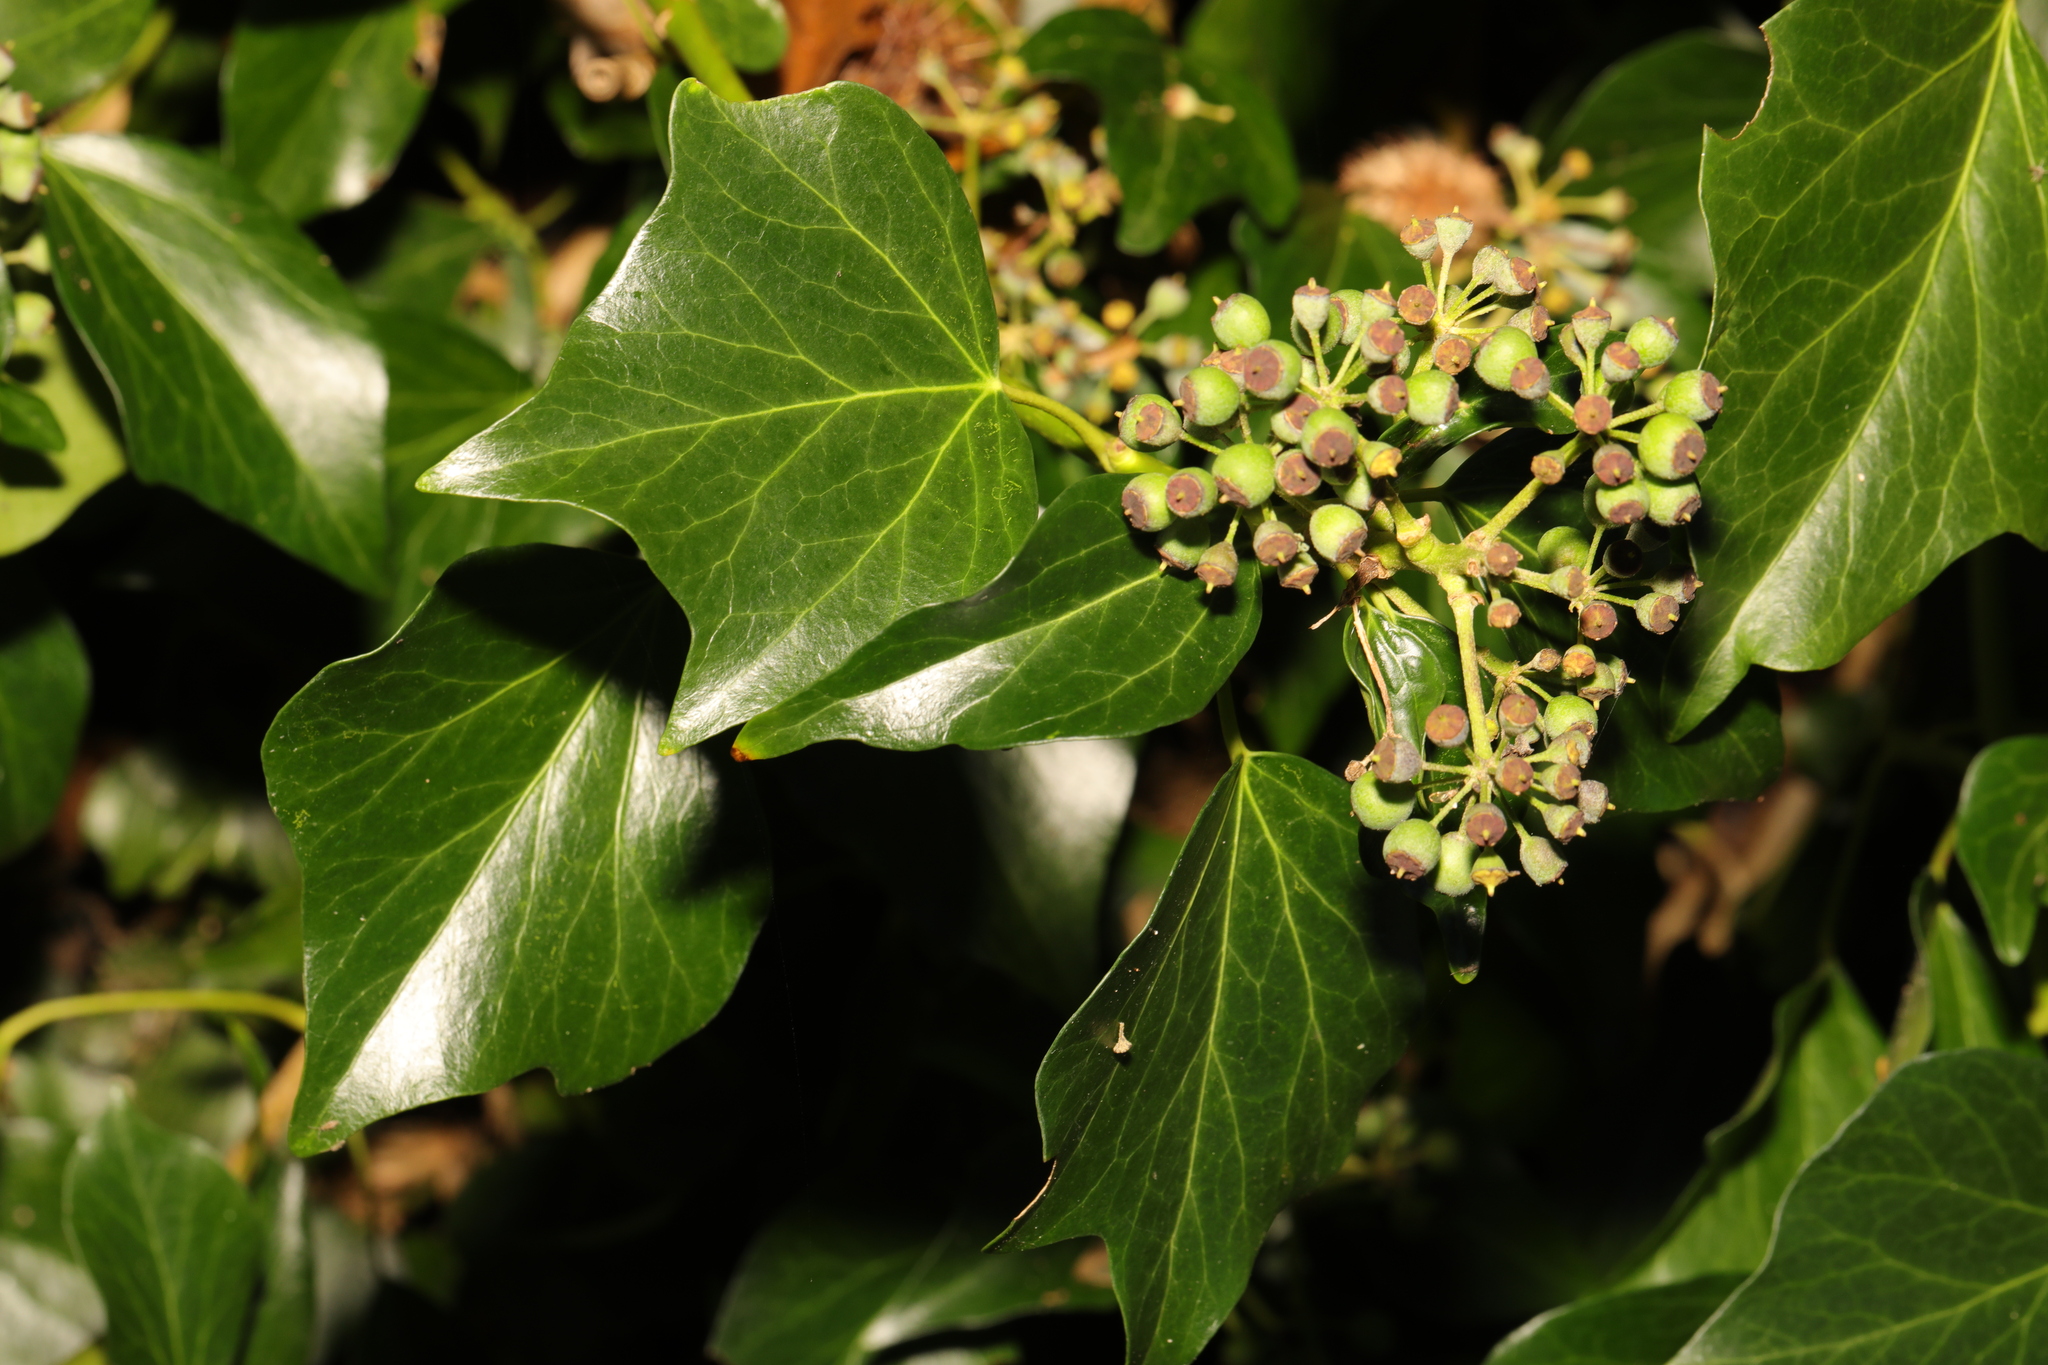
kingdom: Plantae
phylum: Tracheophyta
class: Magnoliopsida
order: Apiales
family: Araliaceae
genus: Hedera
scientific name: Hedera helix
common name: Ivy
